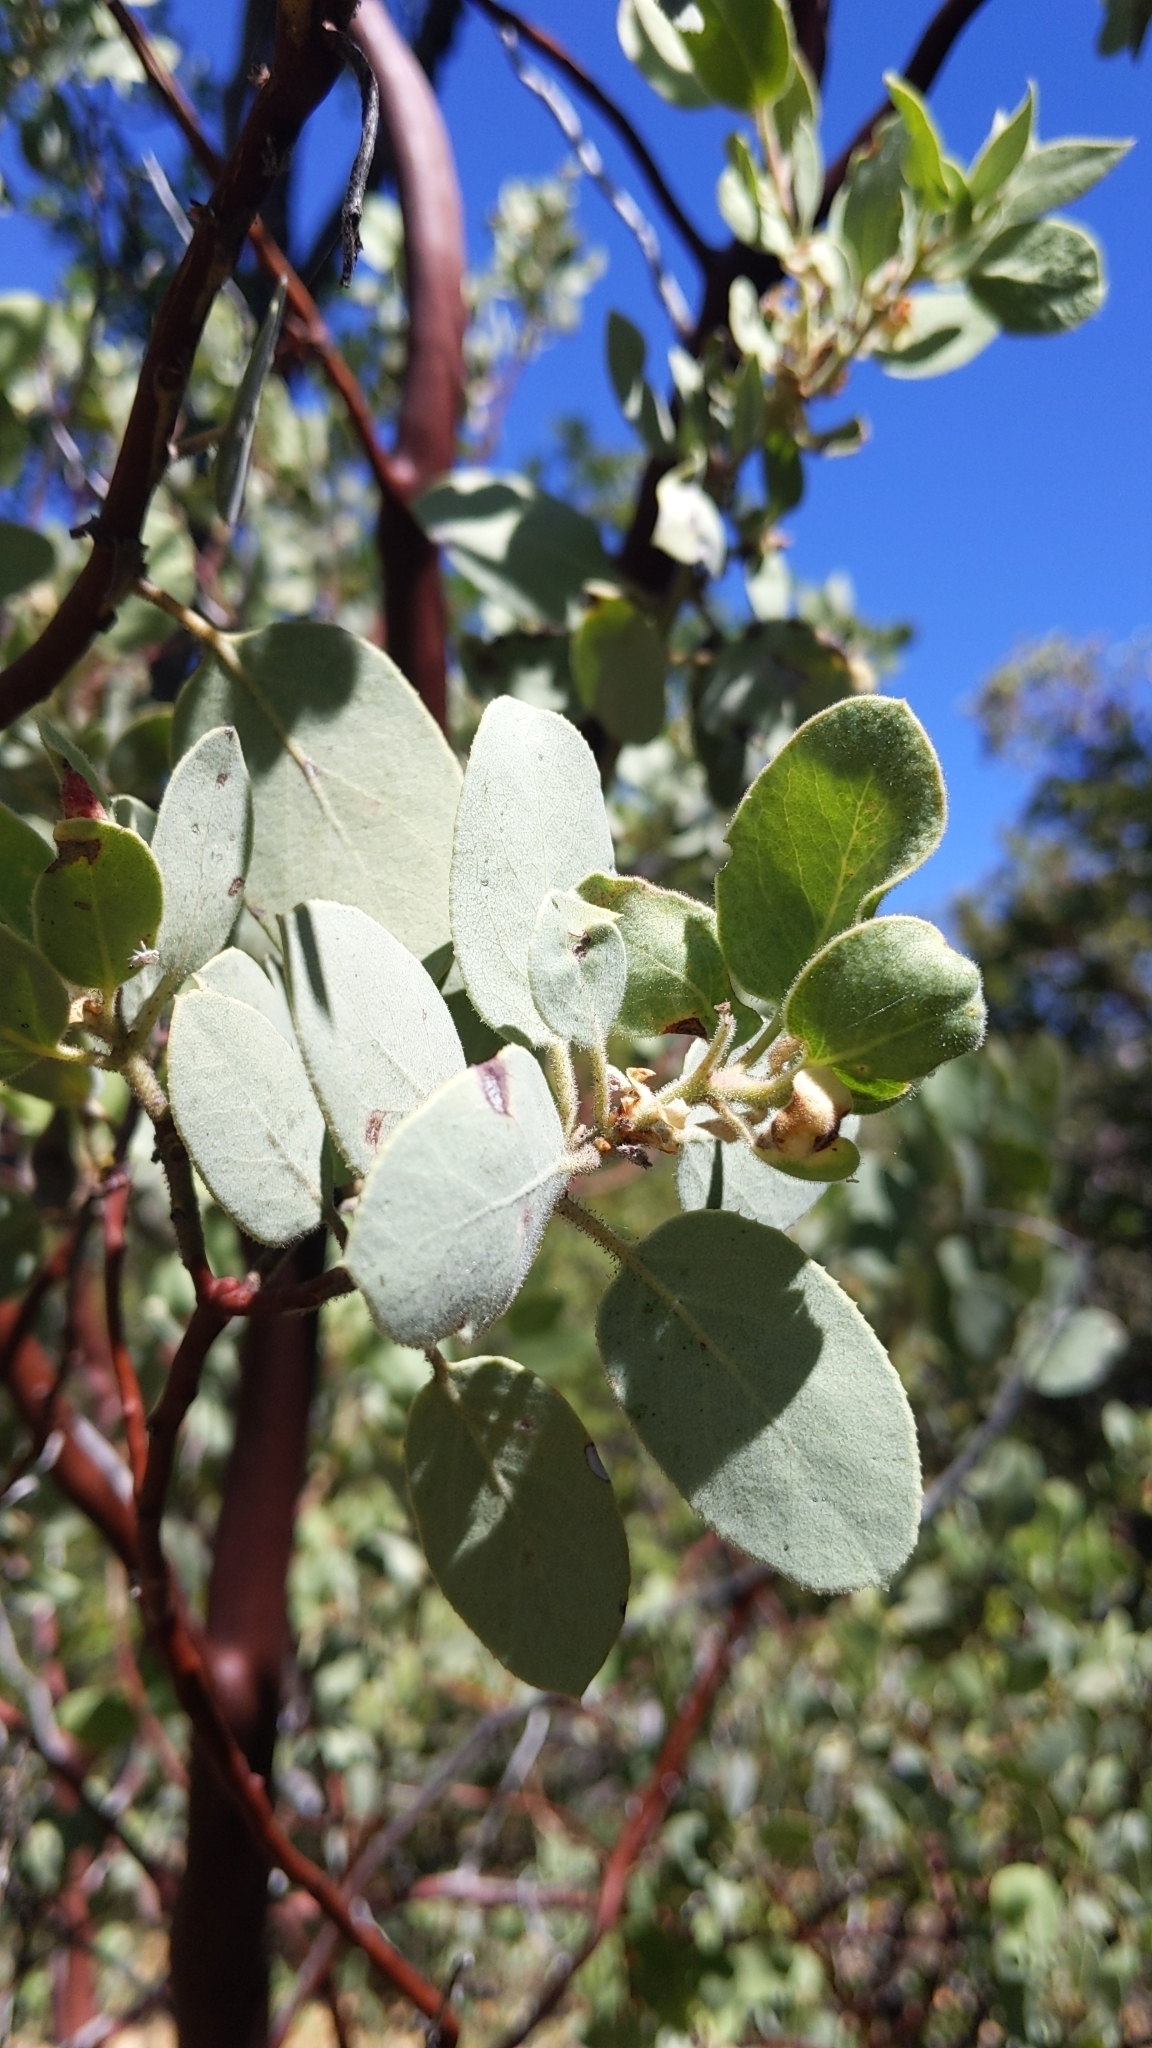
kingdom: Plantae
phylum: Tracheophyta
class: Magnoliopsida
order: Ericales
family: Ericaceae
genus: Arctostaphylos
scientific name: Arctostaphylos viscida
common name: White-leaf manzanita
